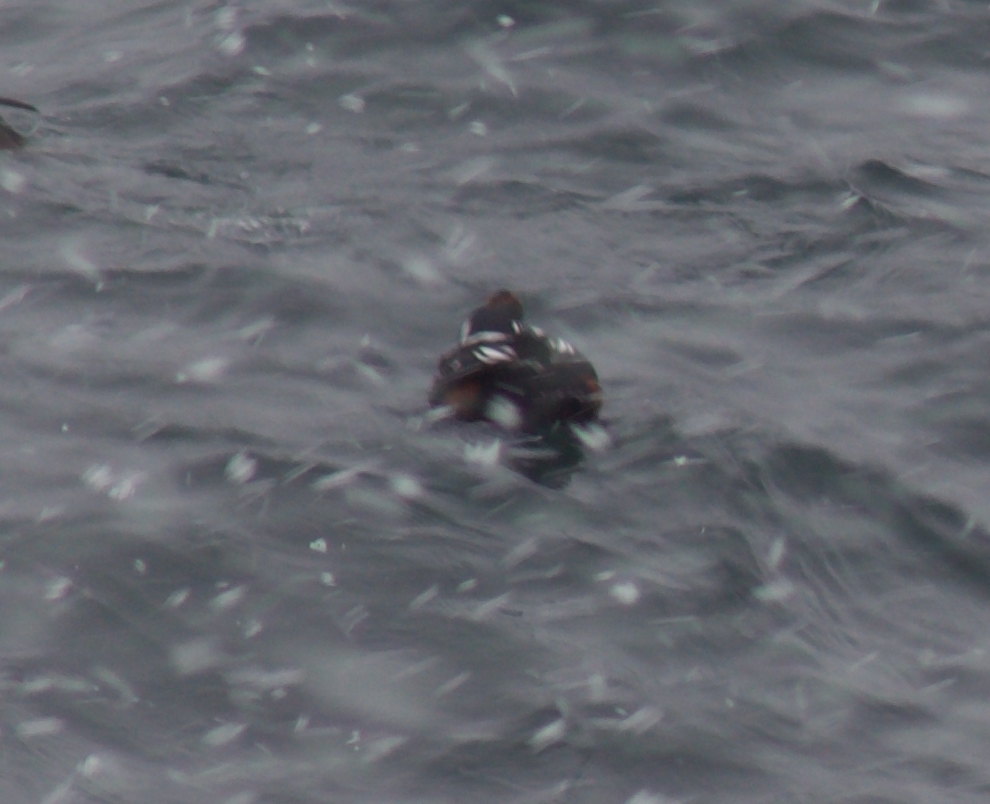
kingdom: Animalia
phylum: Chordata
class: Aves
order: Anseriformes
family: Anatidae
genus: Histrionicus
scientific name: Histrionicus histrionicus
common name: Harlequin duck
